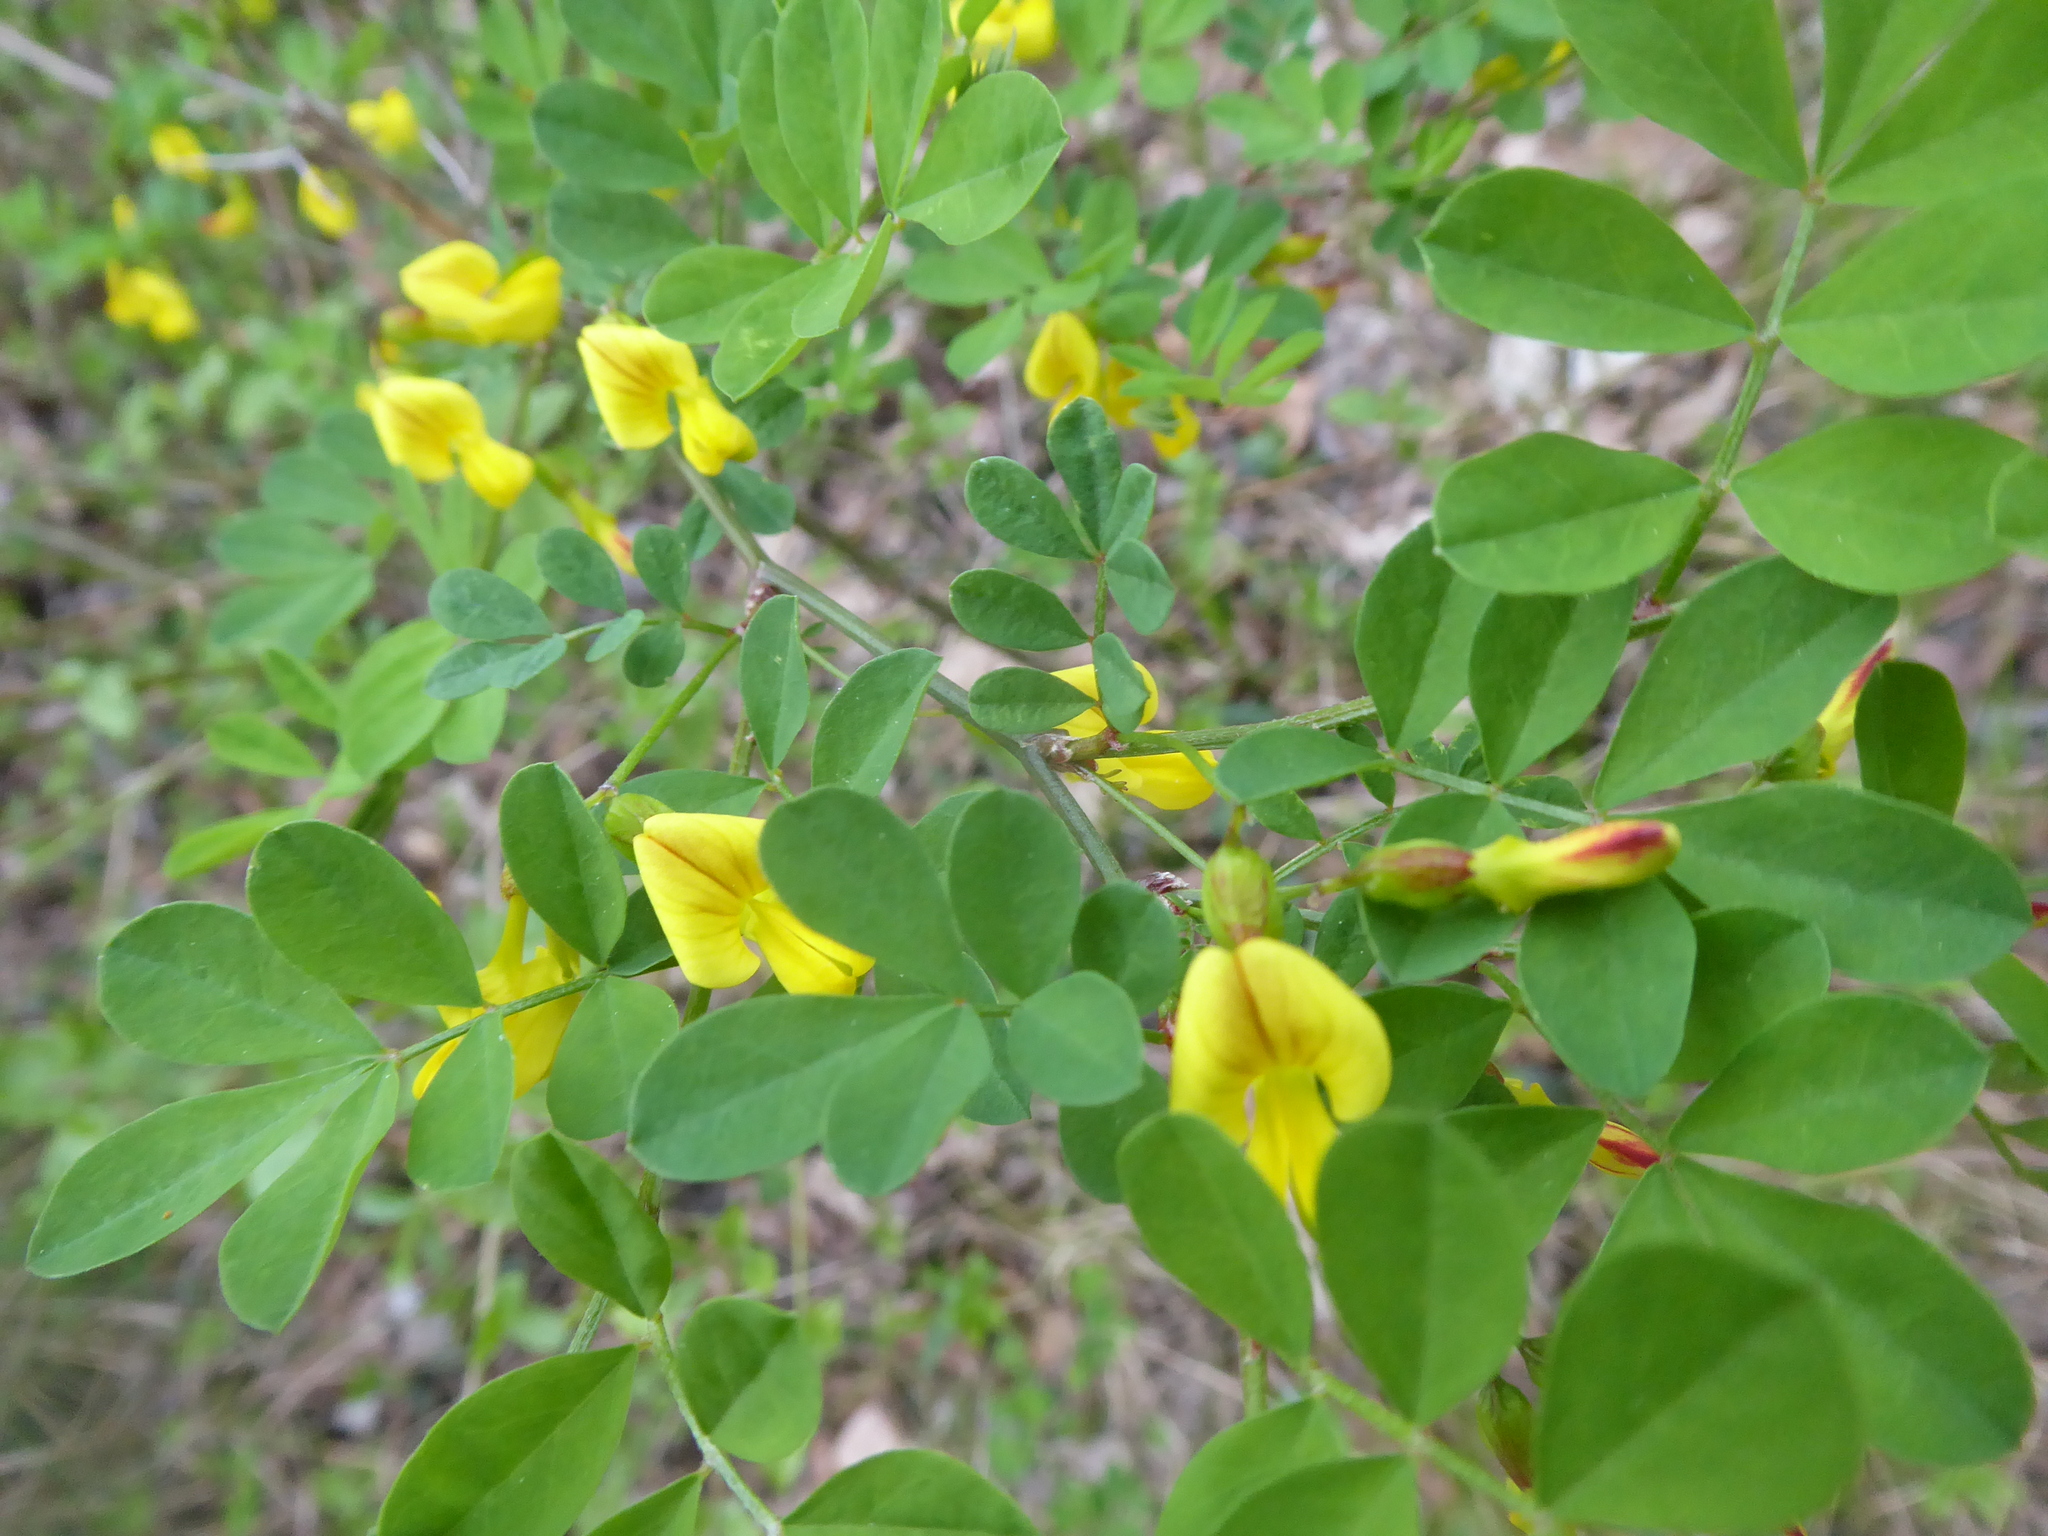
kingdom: Plantae
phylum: Tracheophyta
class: Magnoliopsida
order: Fabales
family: Fabaceae
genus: Hippocrepis
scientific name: Hippocrepis emerus
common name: Scorpion senna
